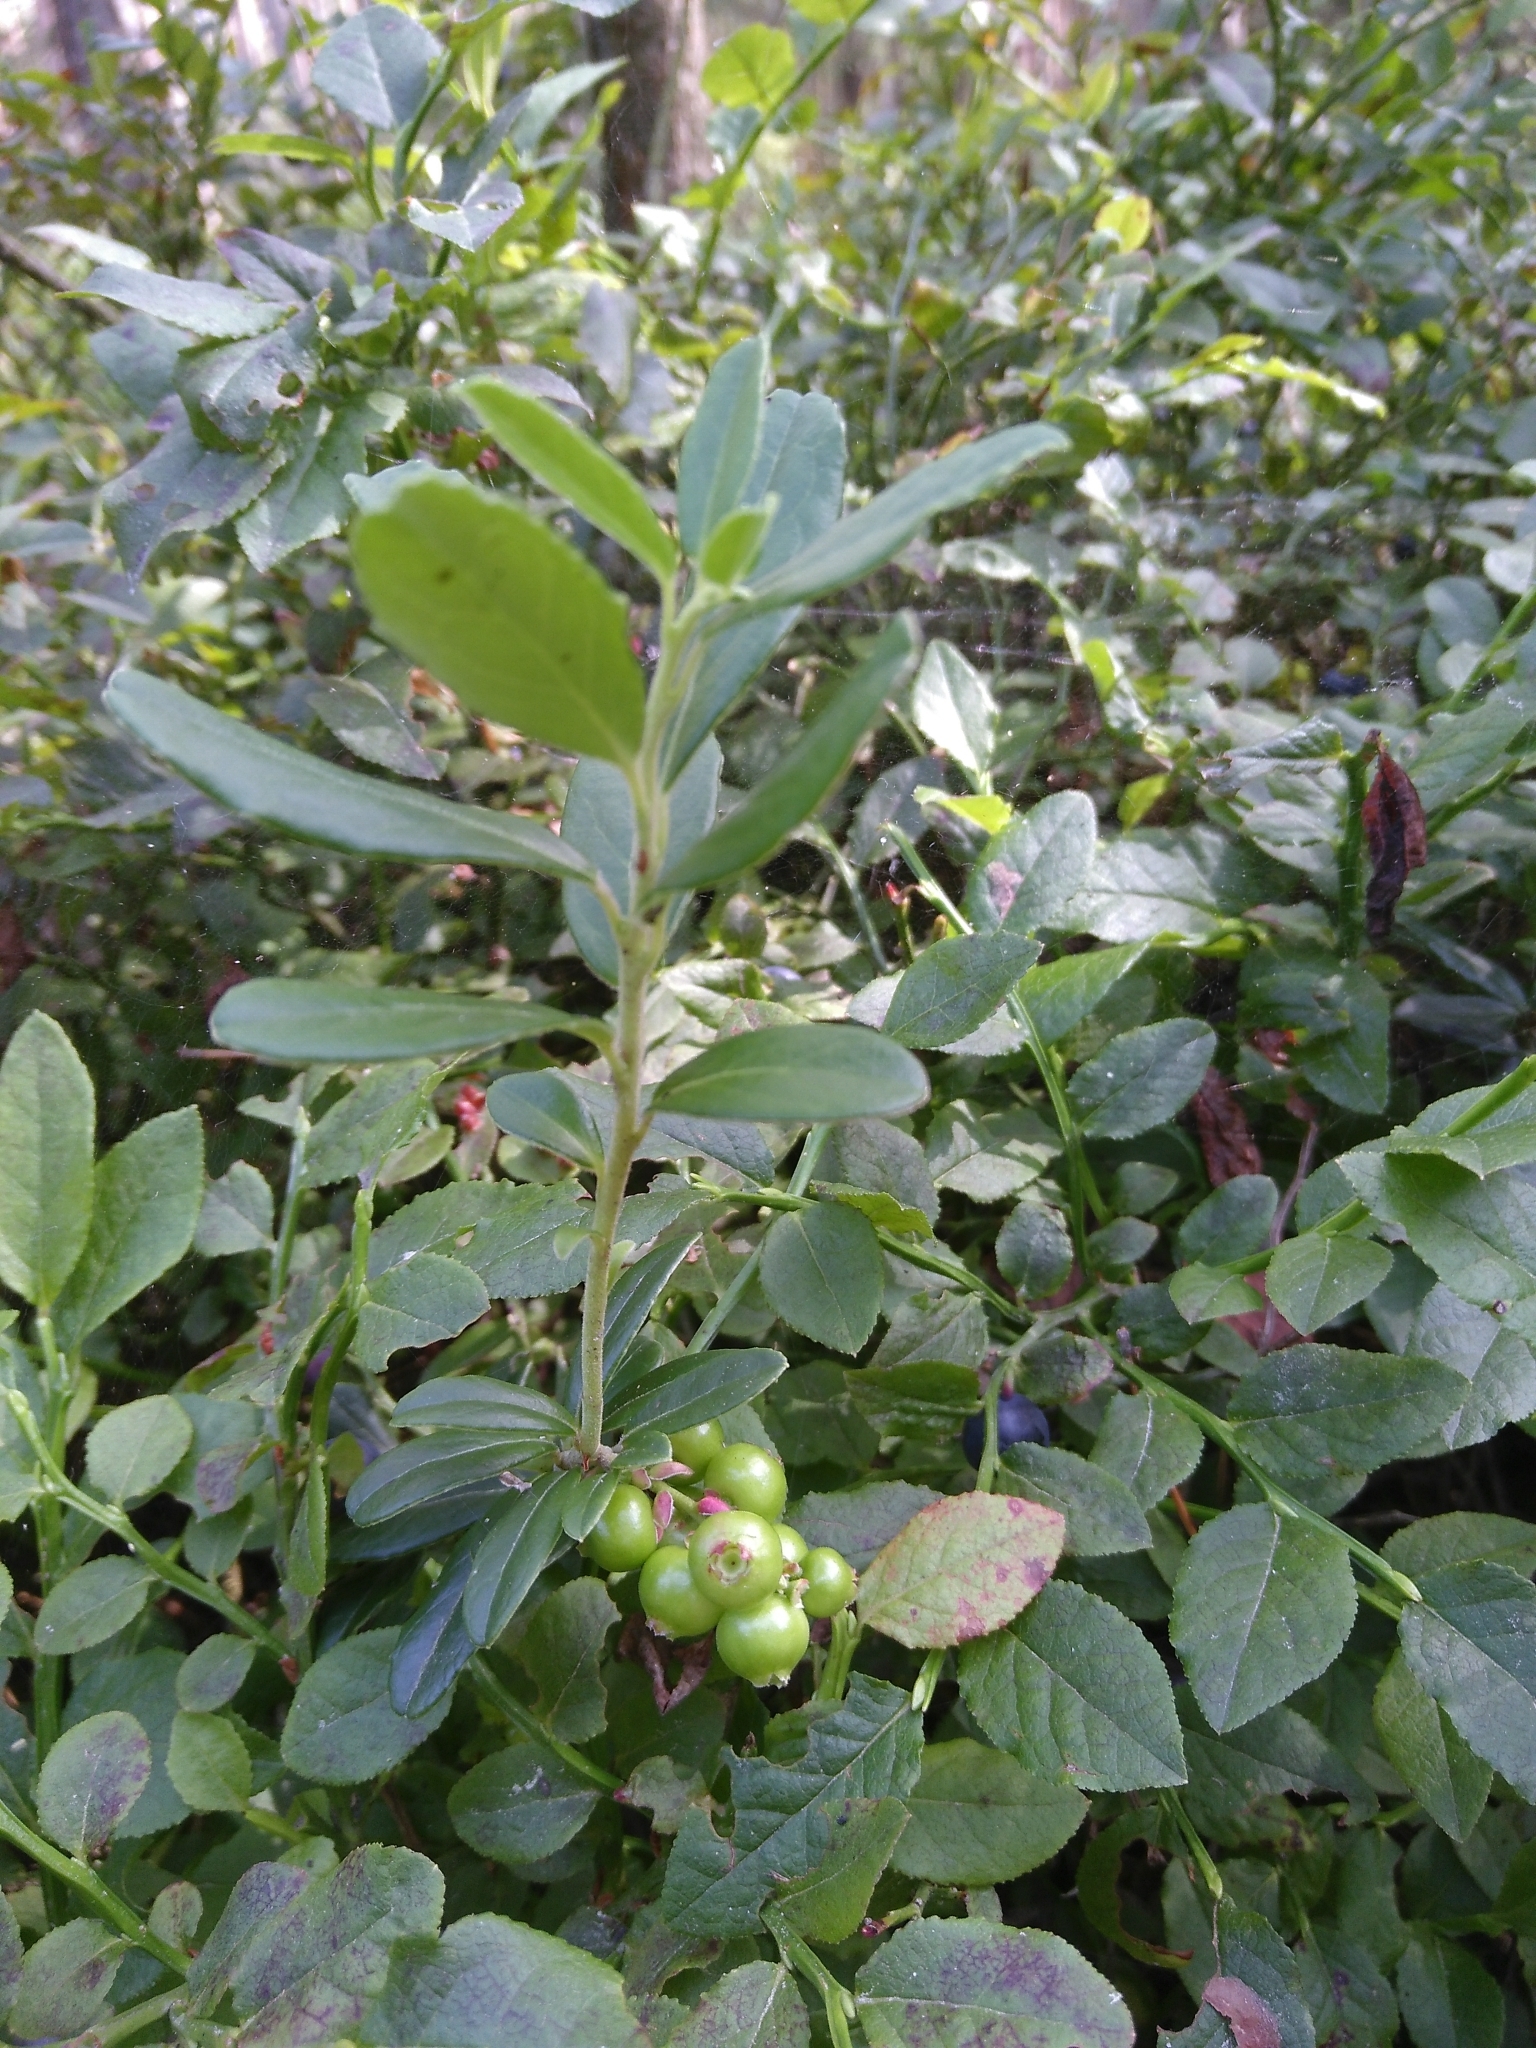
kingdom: Plantae
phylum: Tracheophyta
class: Magnoliopsida
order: Ericales
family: Ericaceae
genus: Vaccinium
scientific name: Vaccinium vitis-idaea
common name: Cowberry
